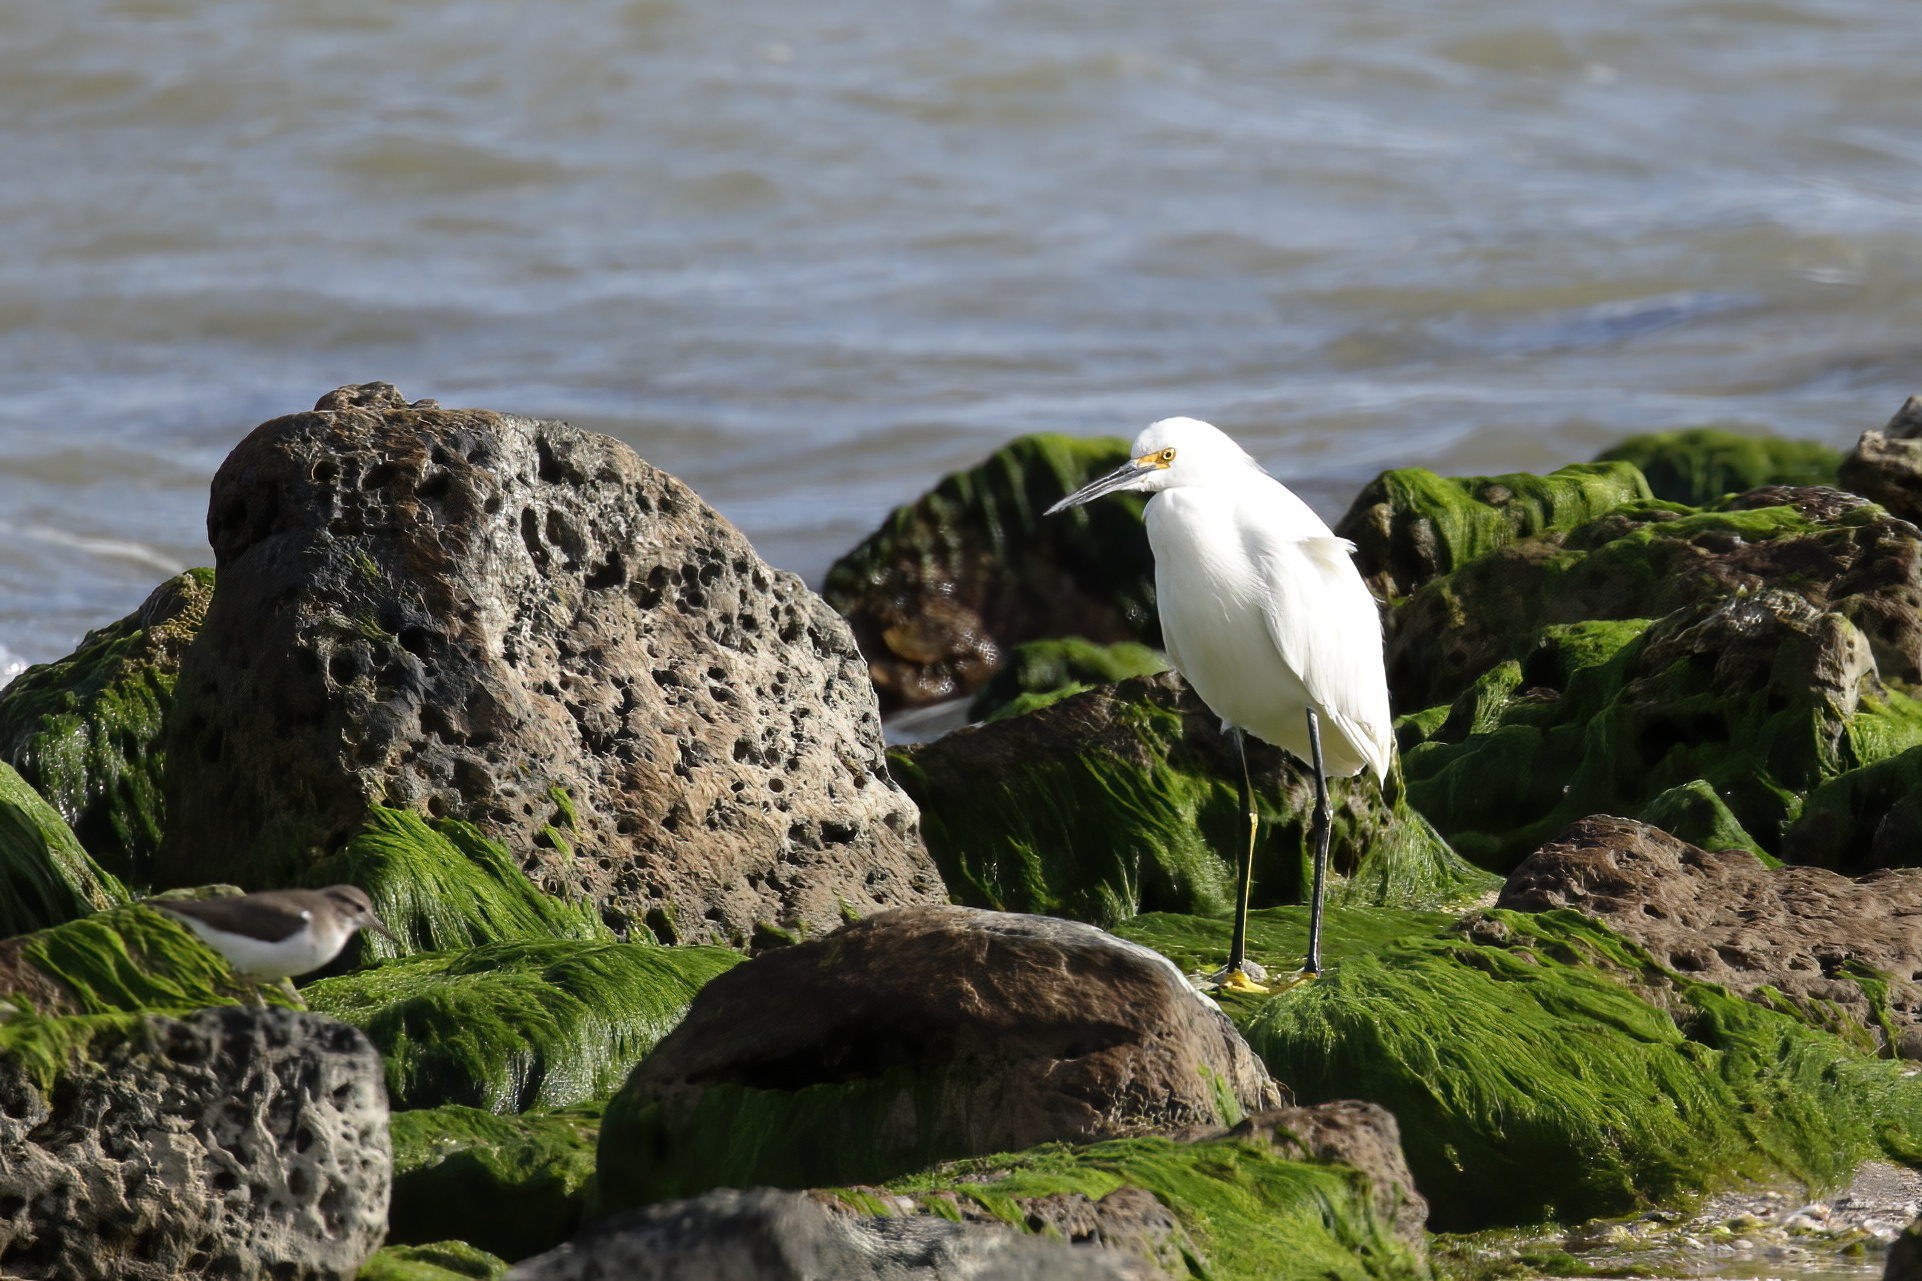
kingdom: Animalia
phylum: Chordata
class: Aves
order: Pelecaniformes
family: Ardeidae
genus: Egretta
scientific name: Egretta thula
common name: Snowy egret
